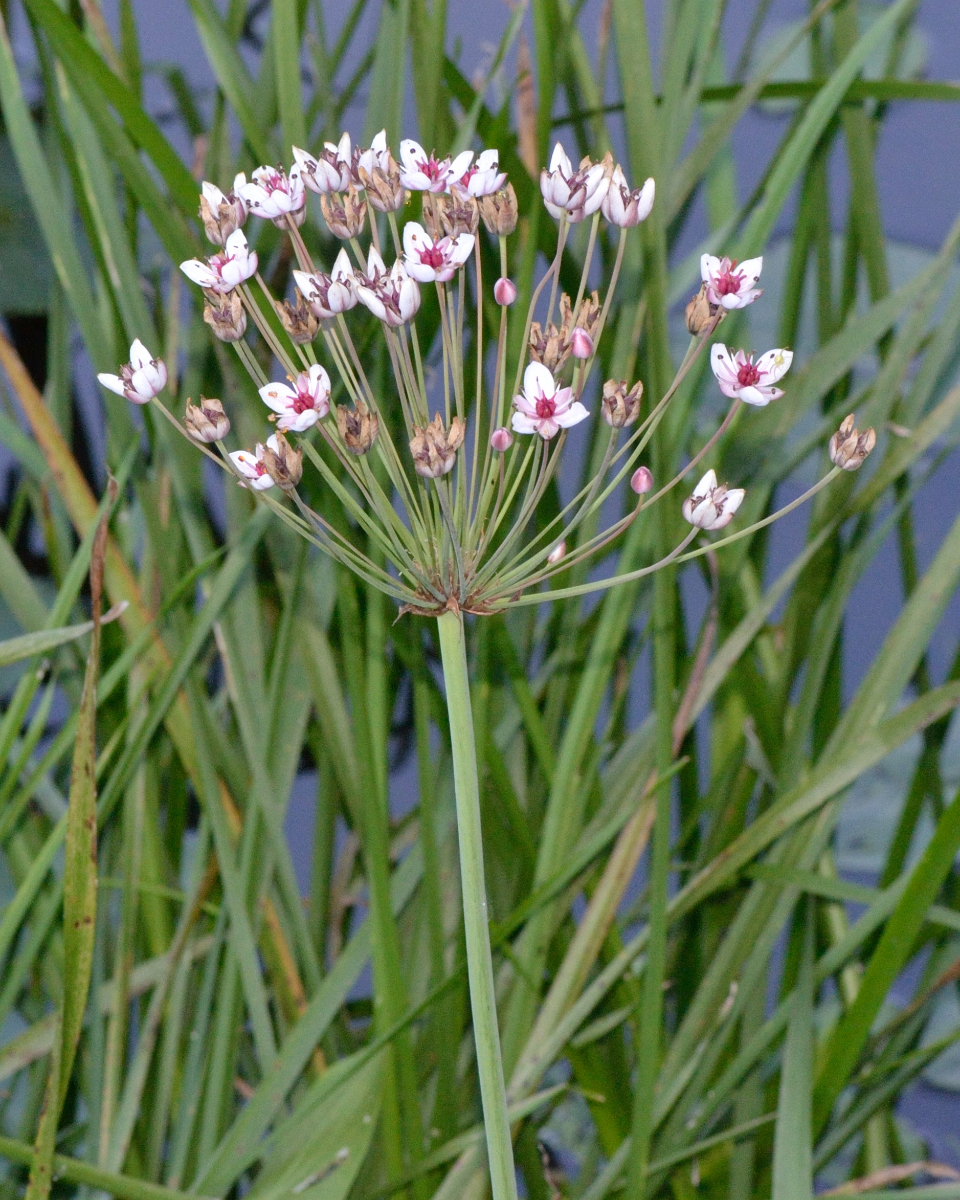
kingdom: Plantae
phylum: Tracheophyta
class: Liliopsida
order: Alismatales
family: Butomaceae
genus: Butomus
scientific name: Butomus umbellatus
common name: Flowering-rush
